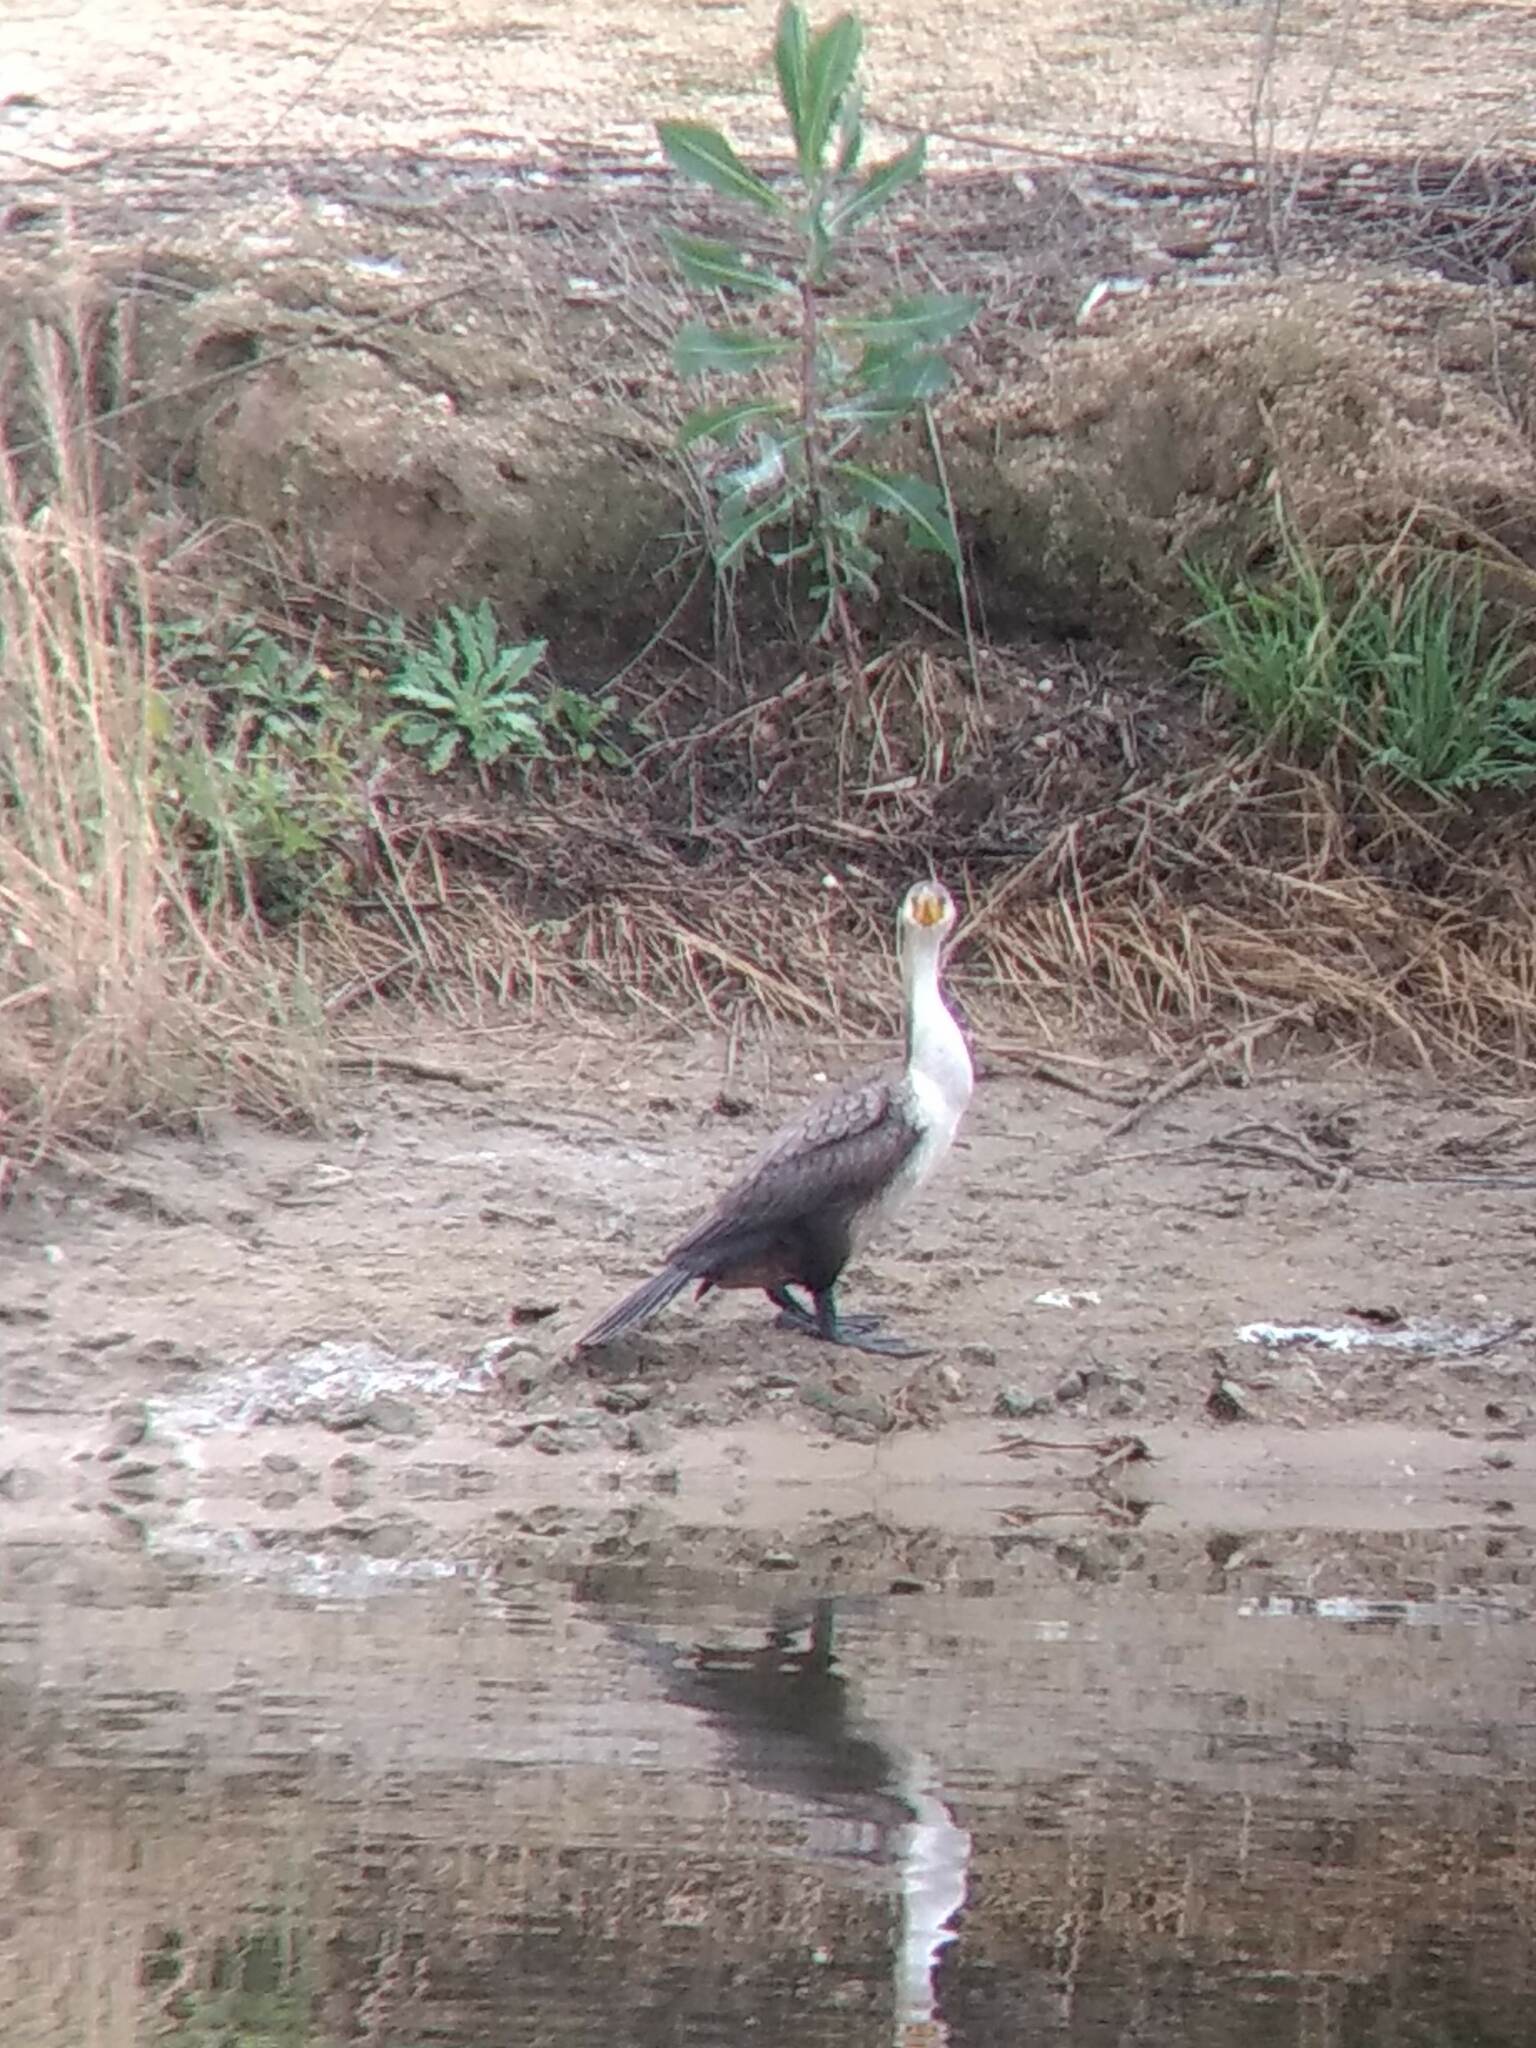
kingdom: Animalia
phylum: Chordata
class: Aves
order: Suliformes
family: Phalacrocoracidae
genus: Phalacrocorax
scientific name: Phalacrocorax auritus
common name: Double-crested cormorant
